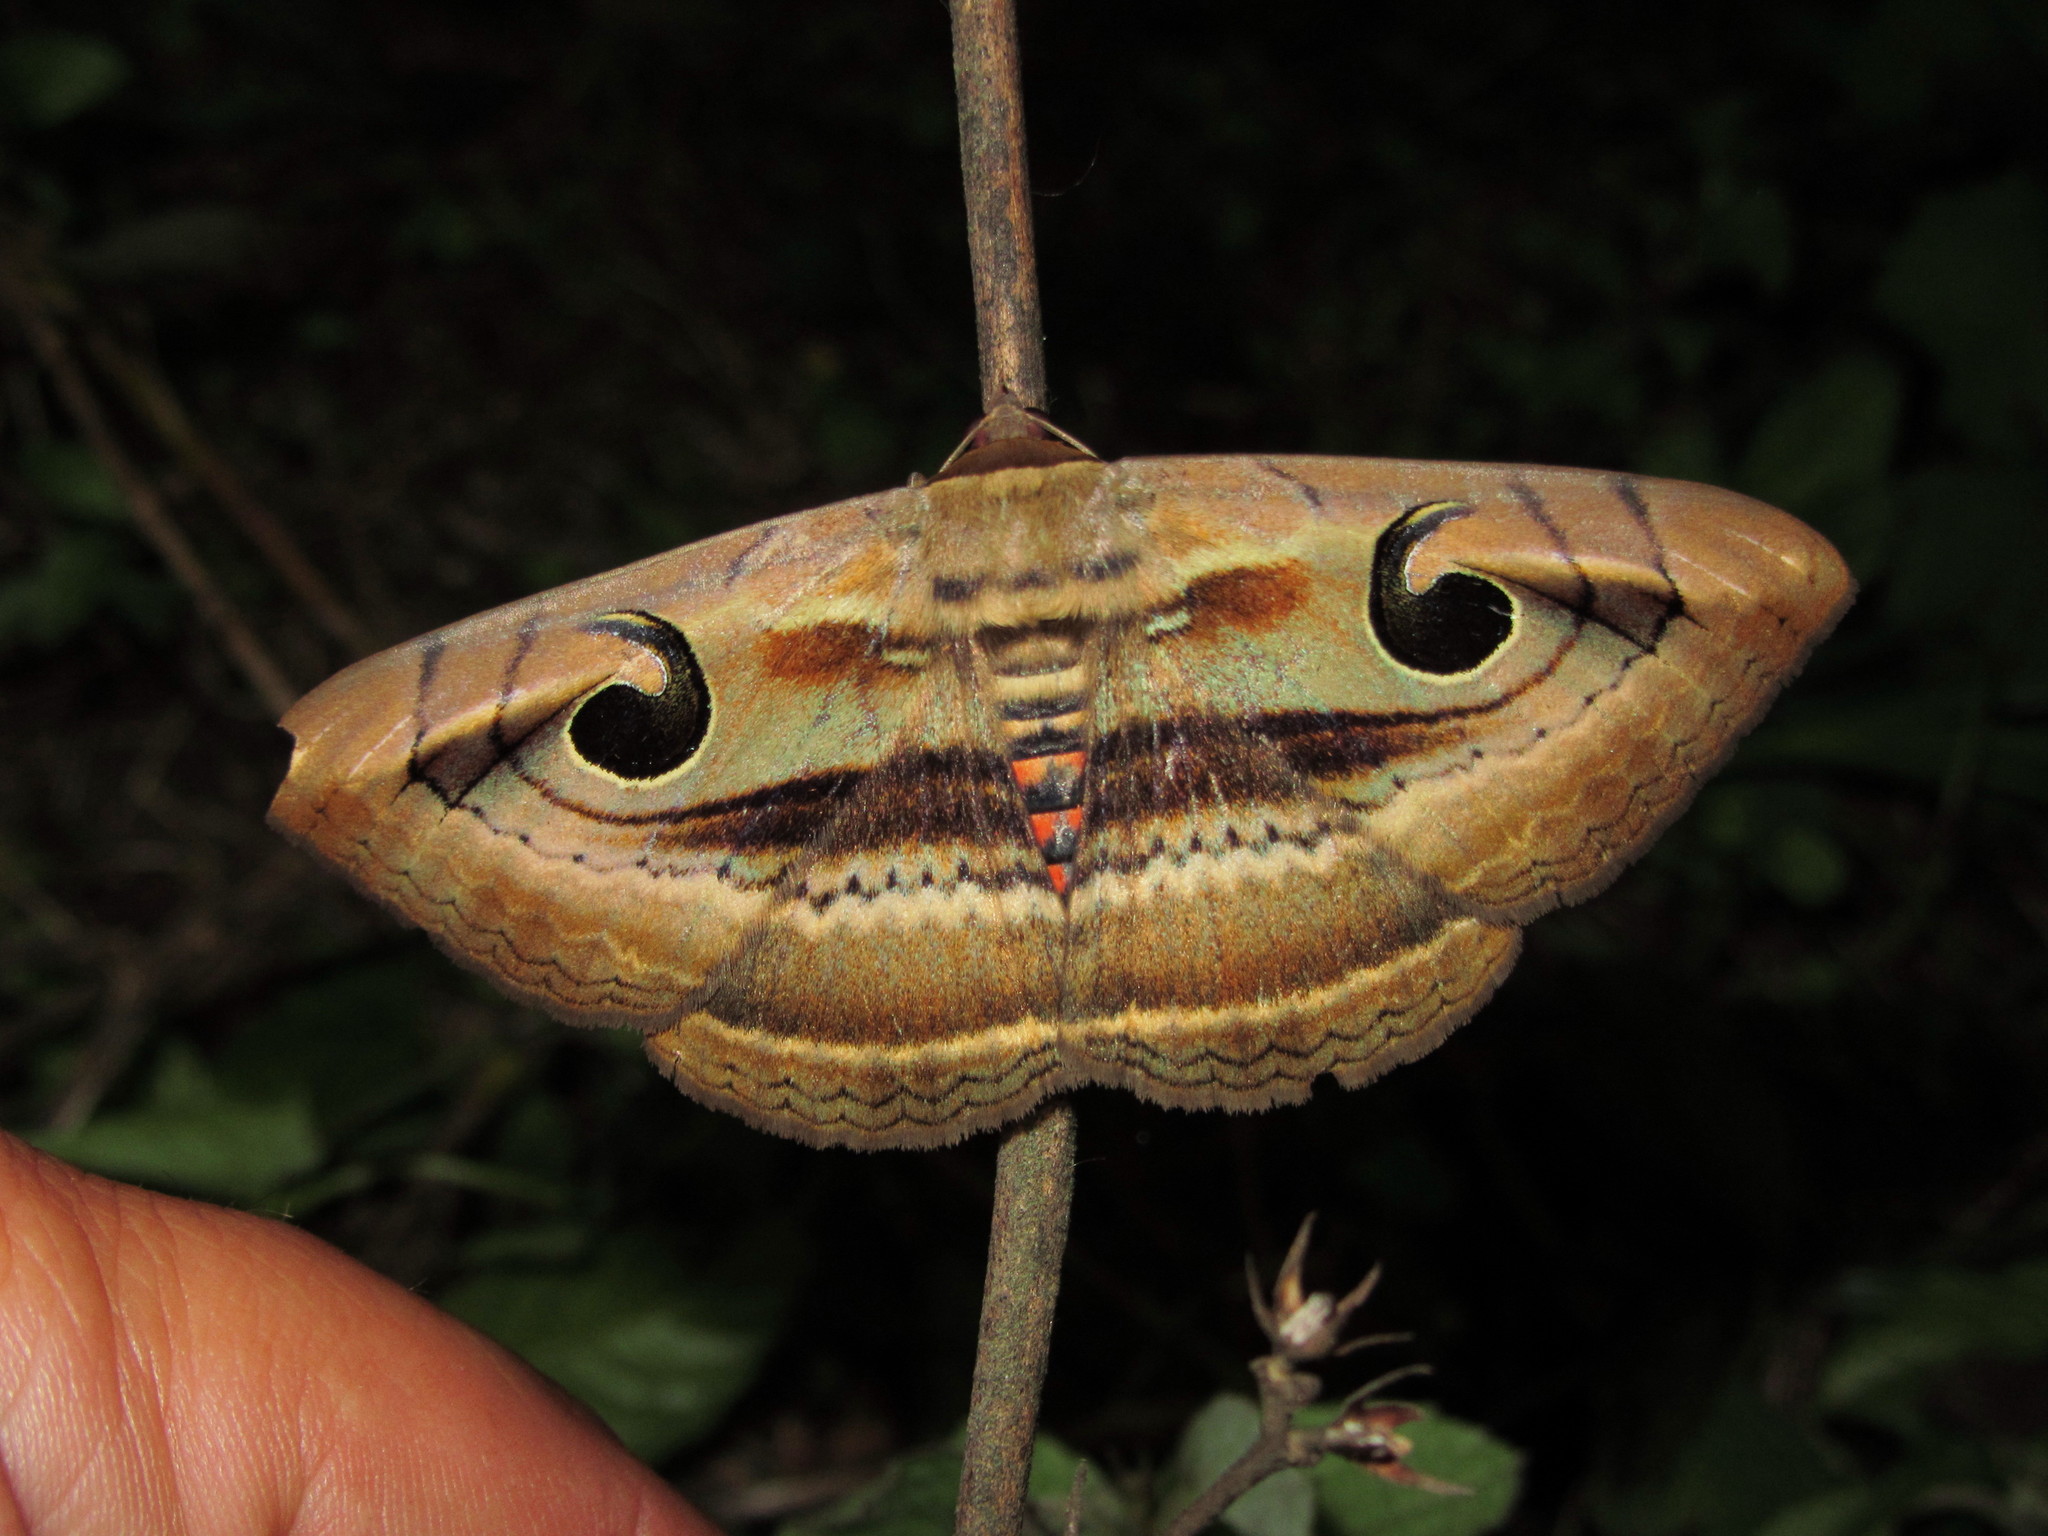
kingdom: Animalia
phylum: Arthropoda
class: Insecta
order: Lepidoptera
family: Erebidae
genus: Spirama
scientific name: Spirama
